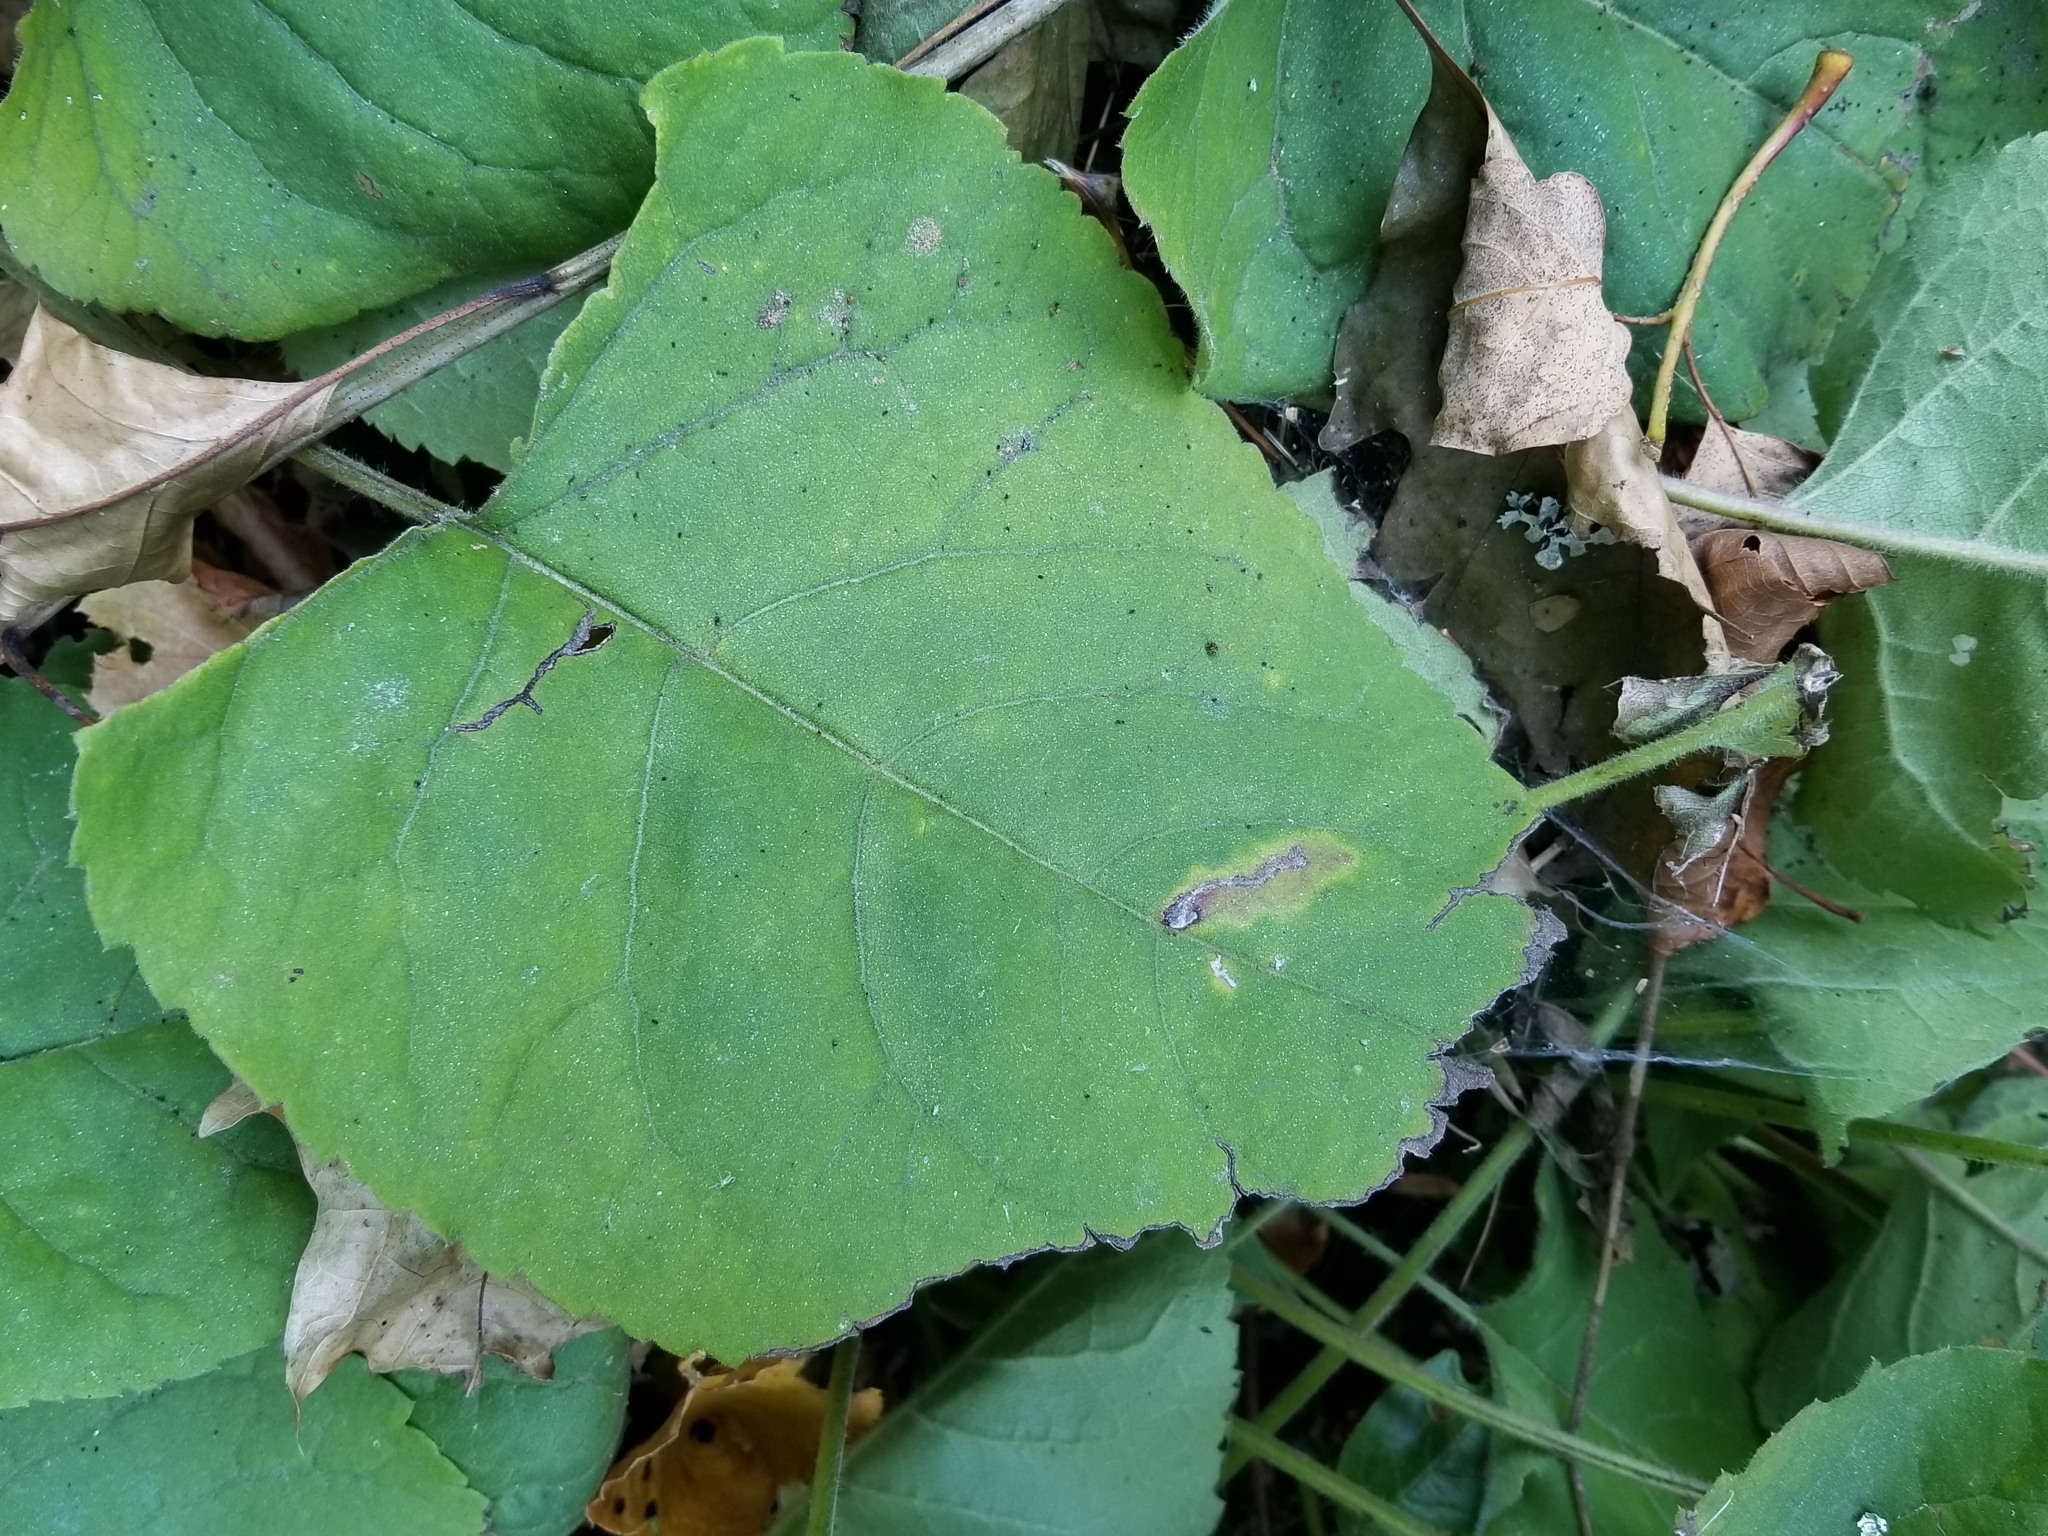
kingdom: Plantae
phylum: Tracheophyta
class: Magnoliopsida
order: Asterales
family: Asteraceae
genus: Eurybia
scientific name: Eurybia macrophylla
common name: Big-leaved aster
